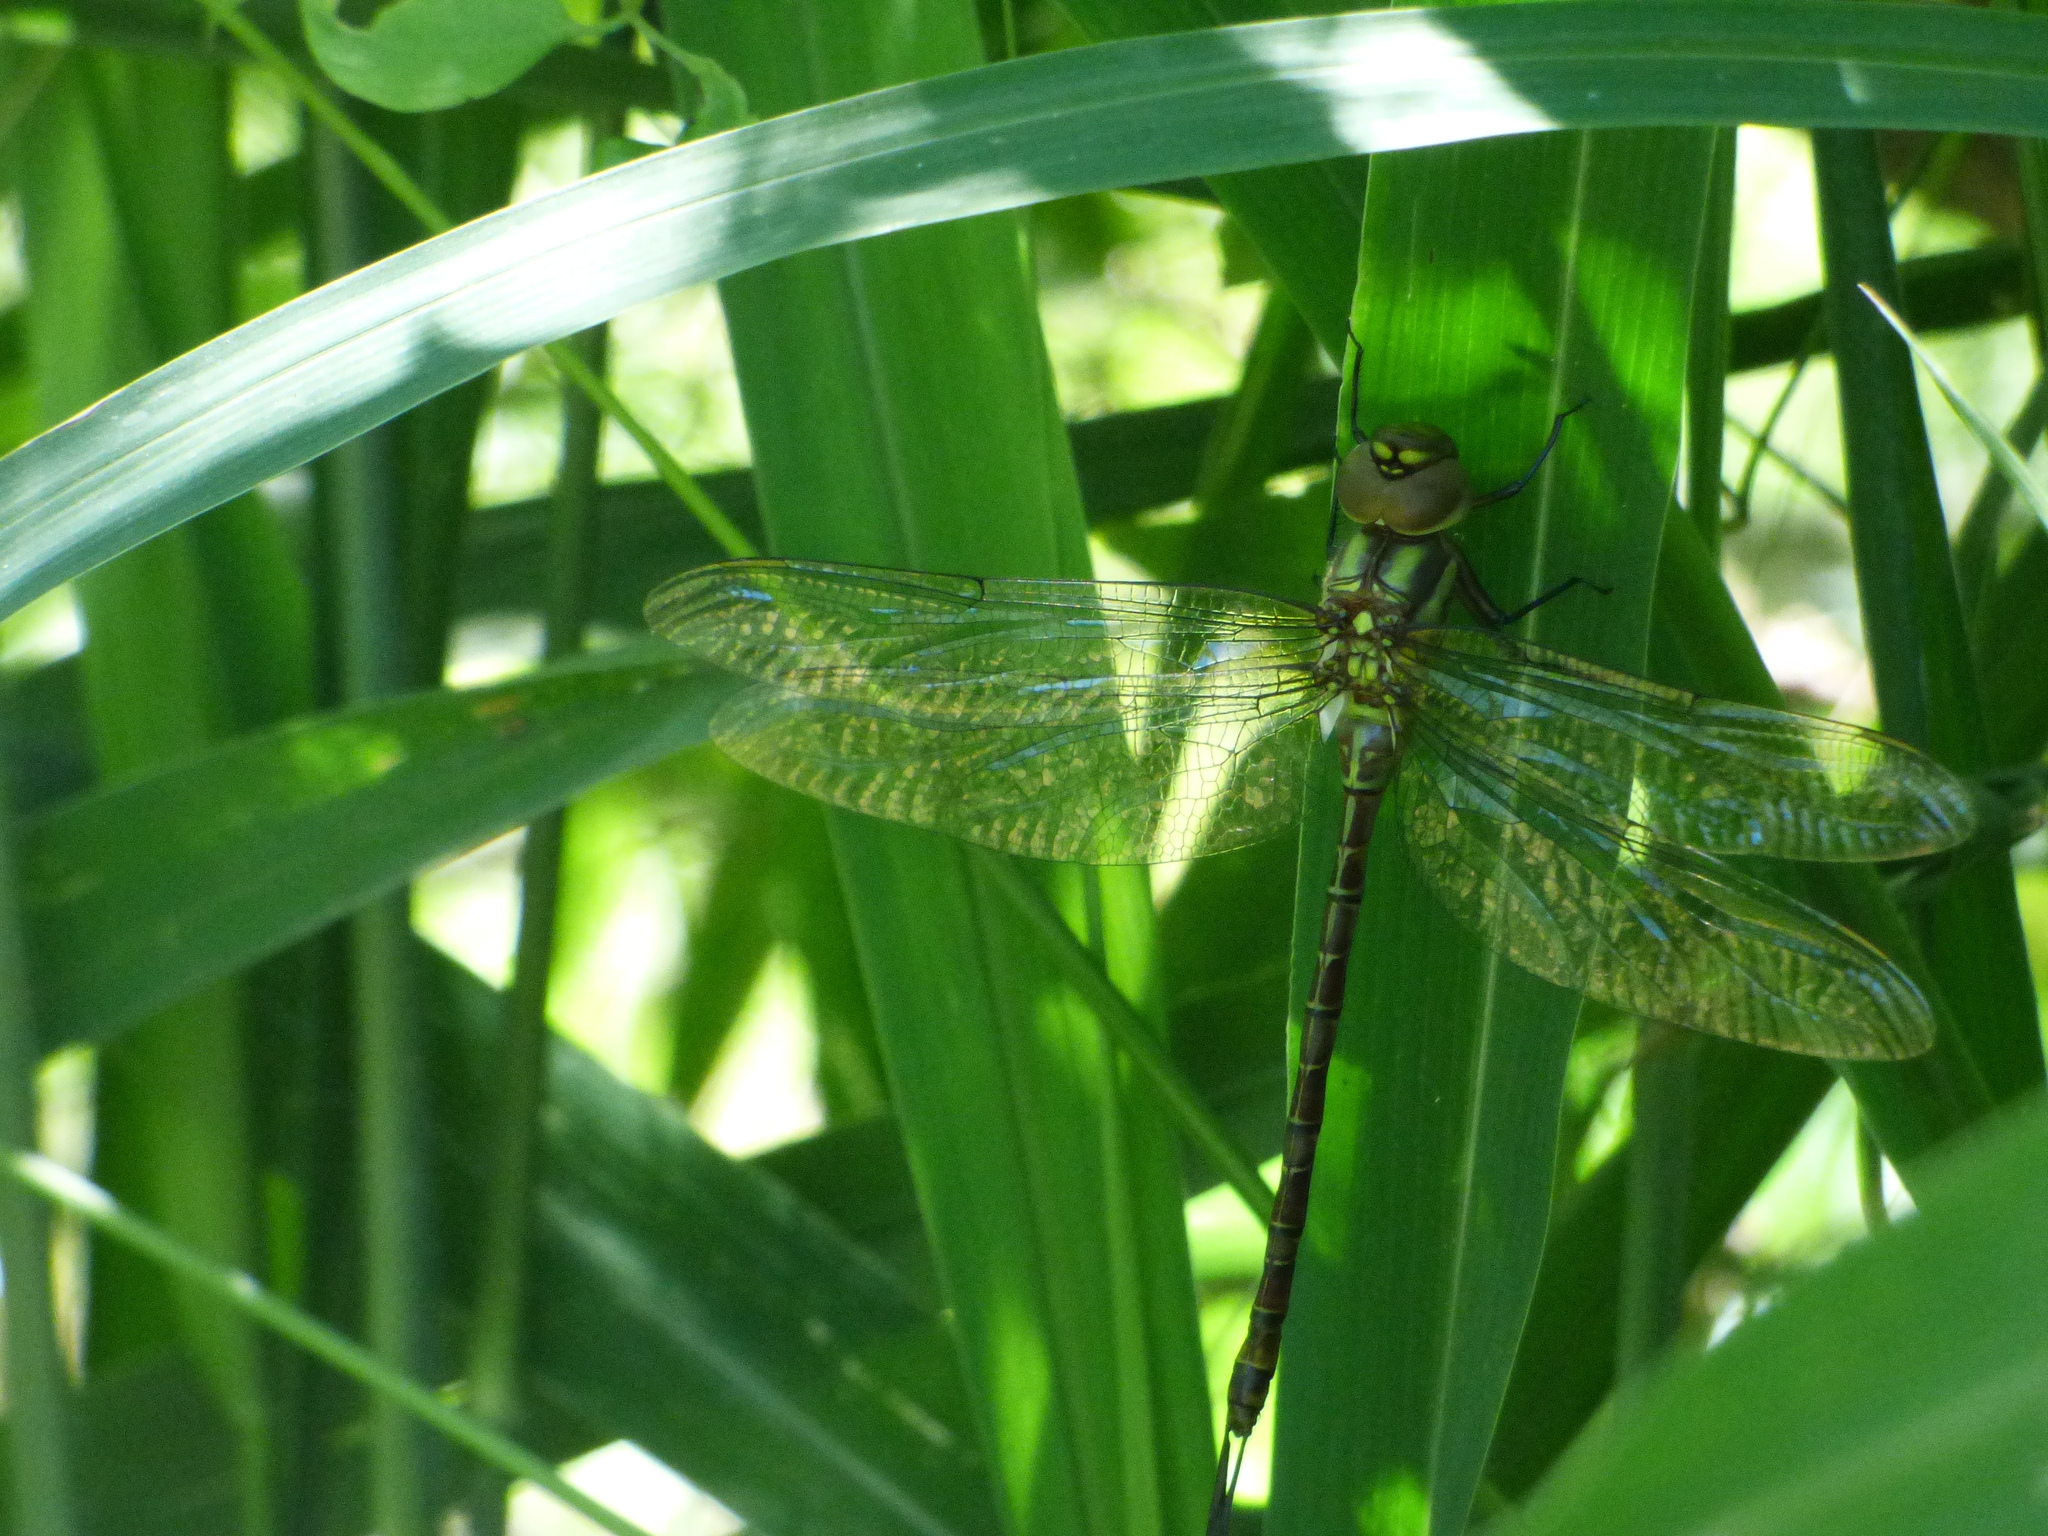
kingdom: Animalia
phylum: Arthropoda
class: Insecta
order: Odonata
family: Aeshnidae
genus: Coryphaeschna
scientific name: Coryphaeschna adnexa
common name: Blue-faced darner
